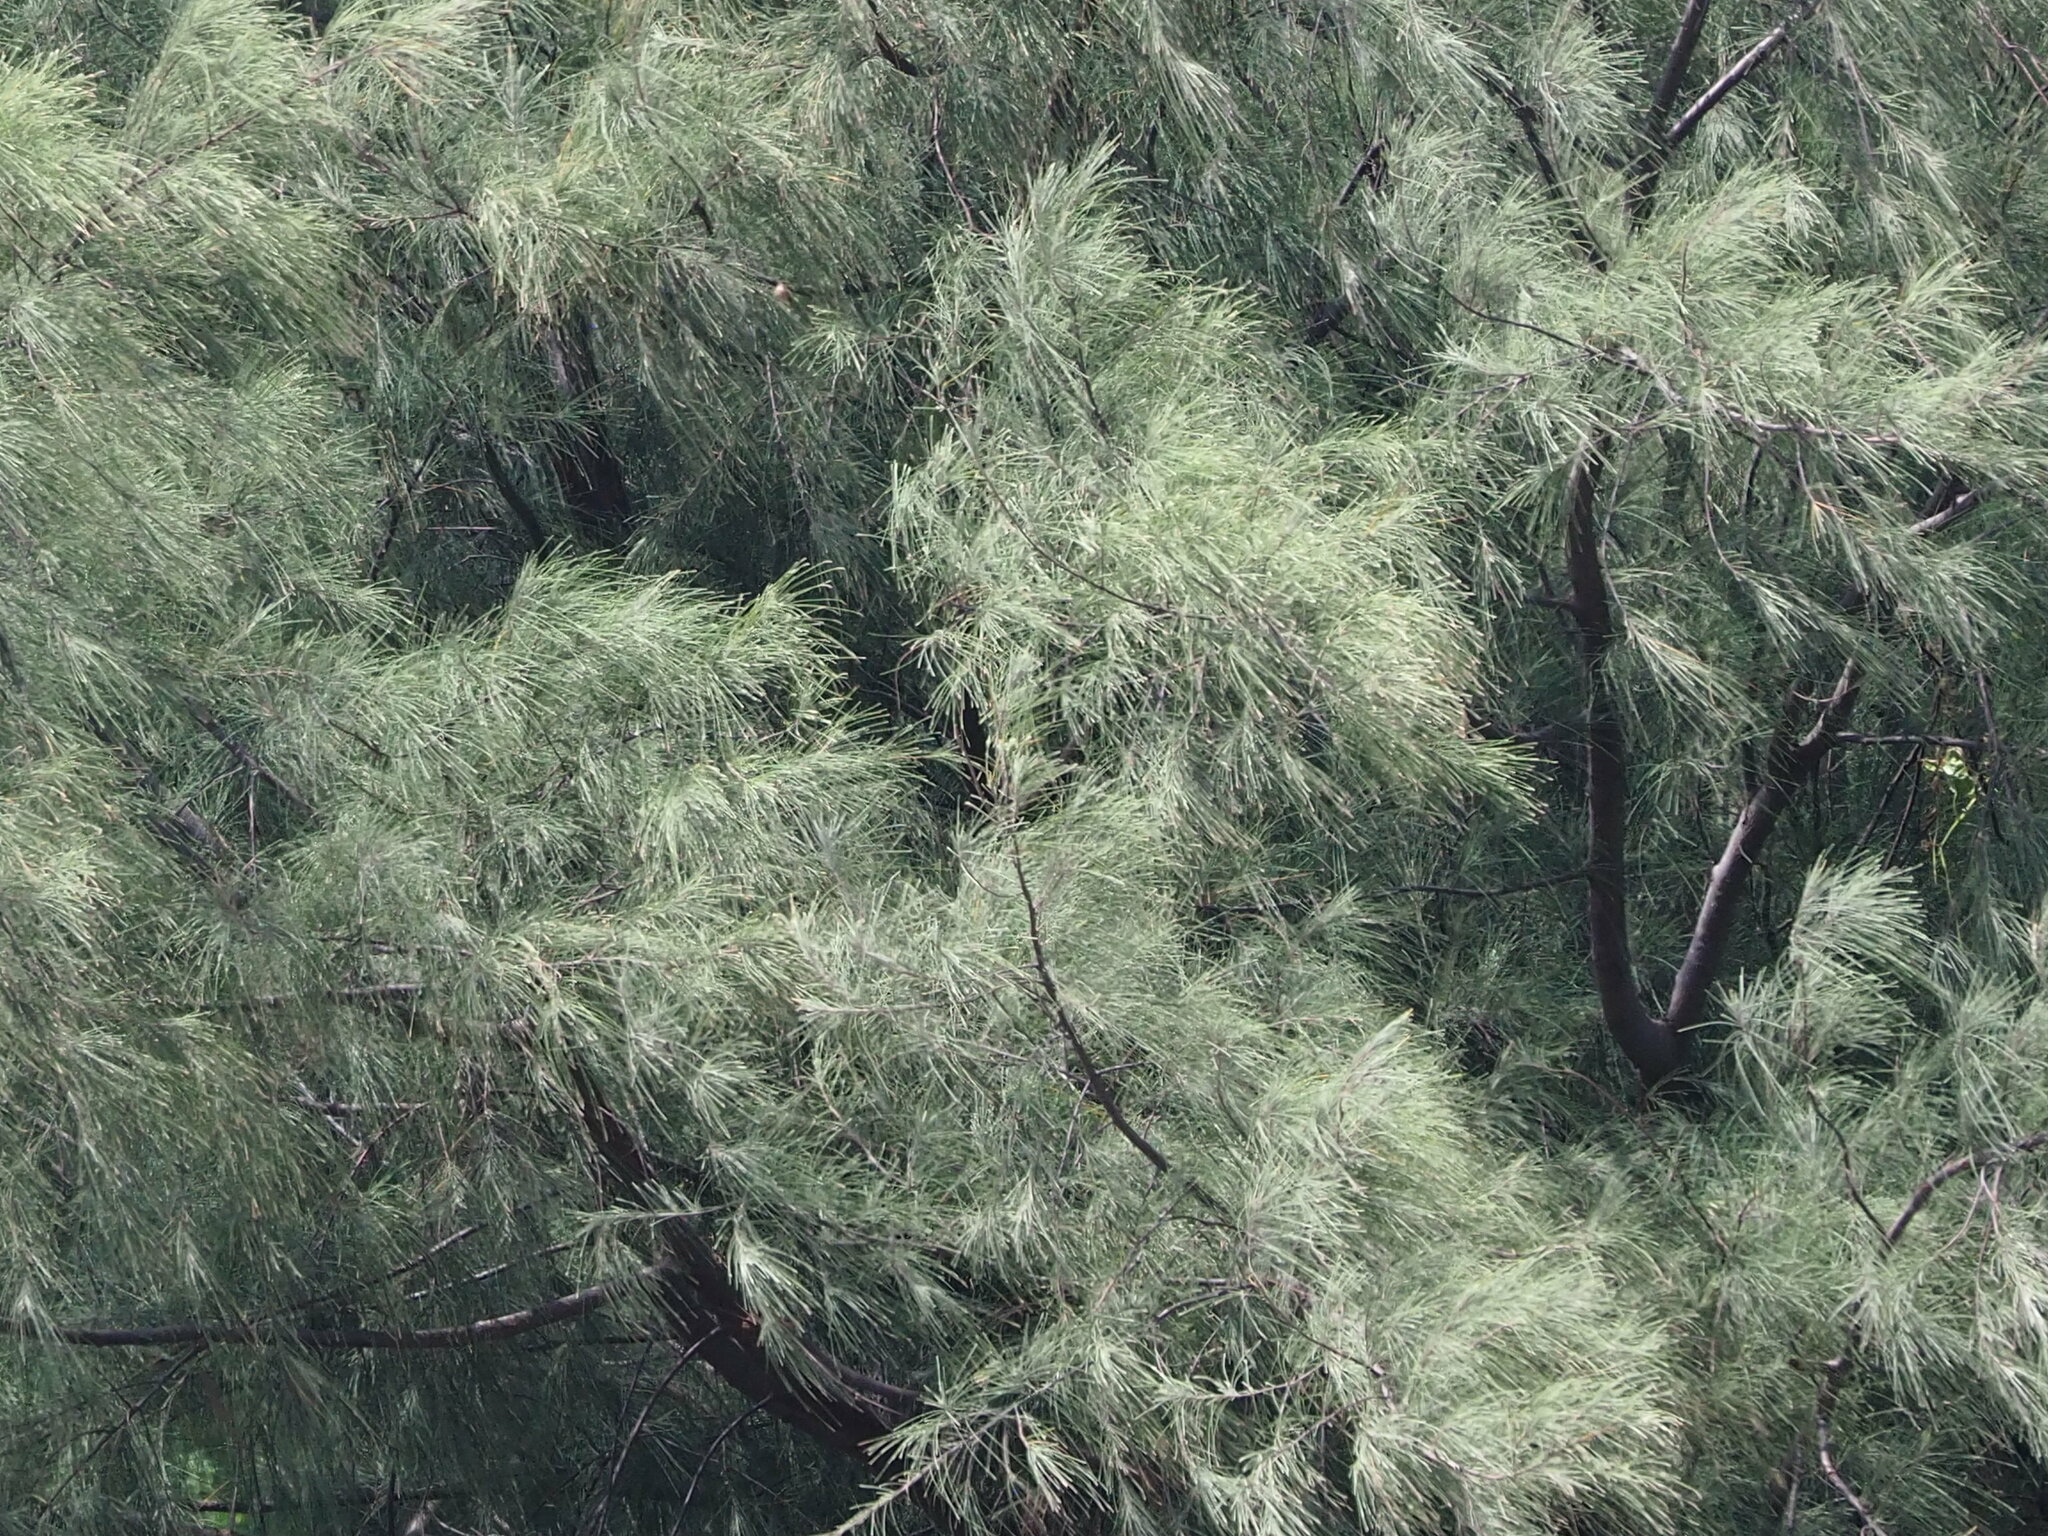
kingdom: Plantae
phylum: Tracheophyta
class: Magnoliopsida
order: Fagales
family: Casuarinaceae
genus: Casuarina
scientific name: Casuarina equisetifolia
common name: Beach sheoak
